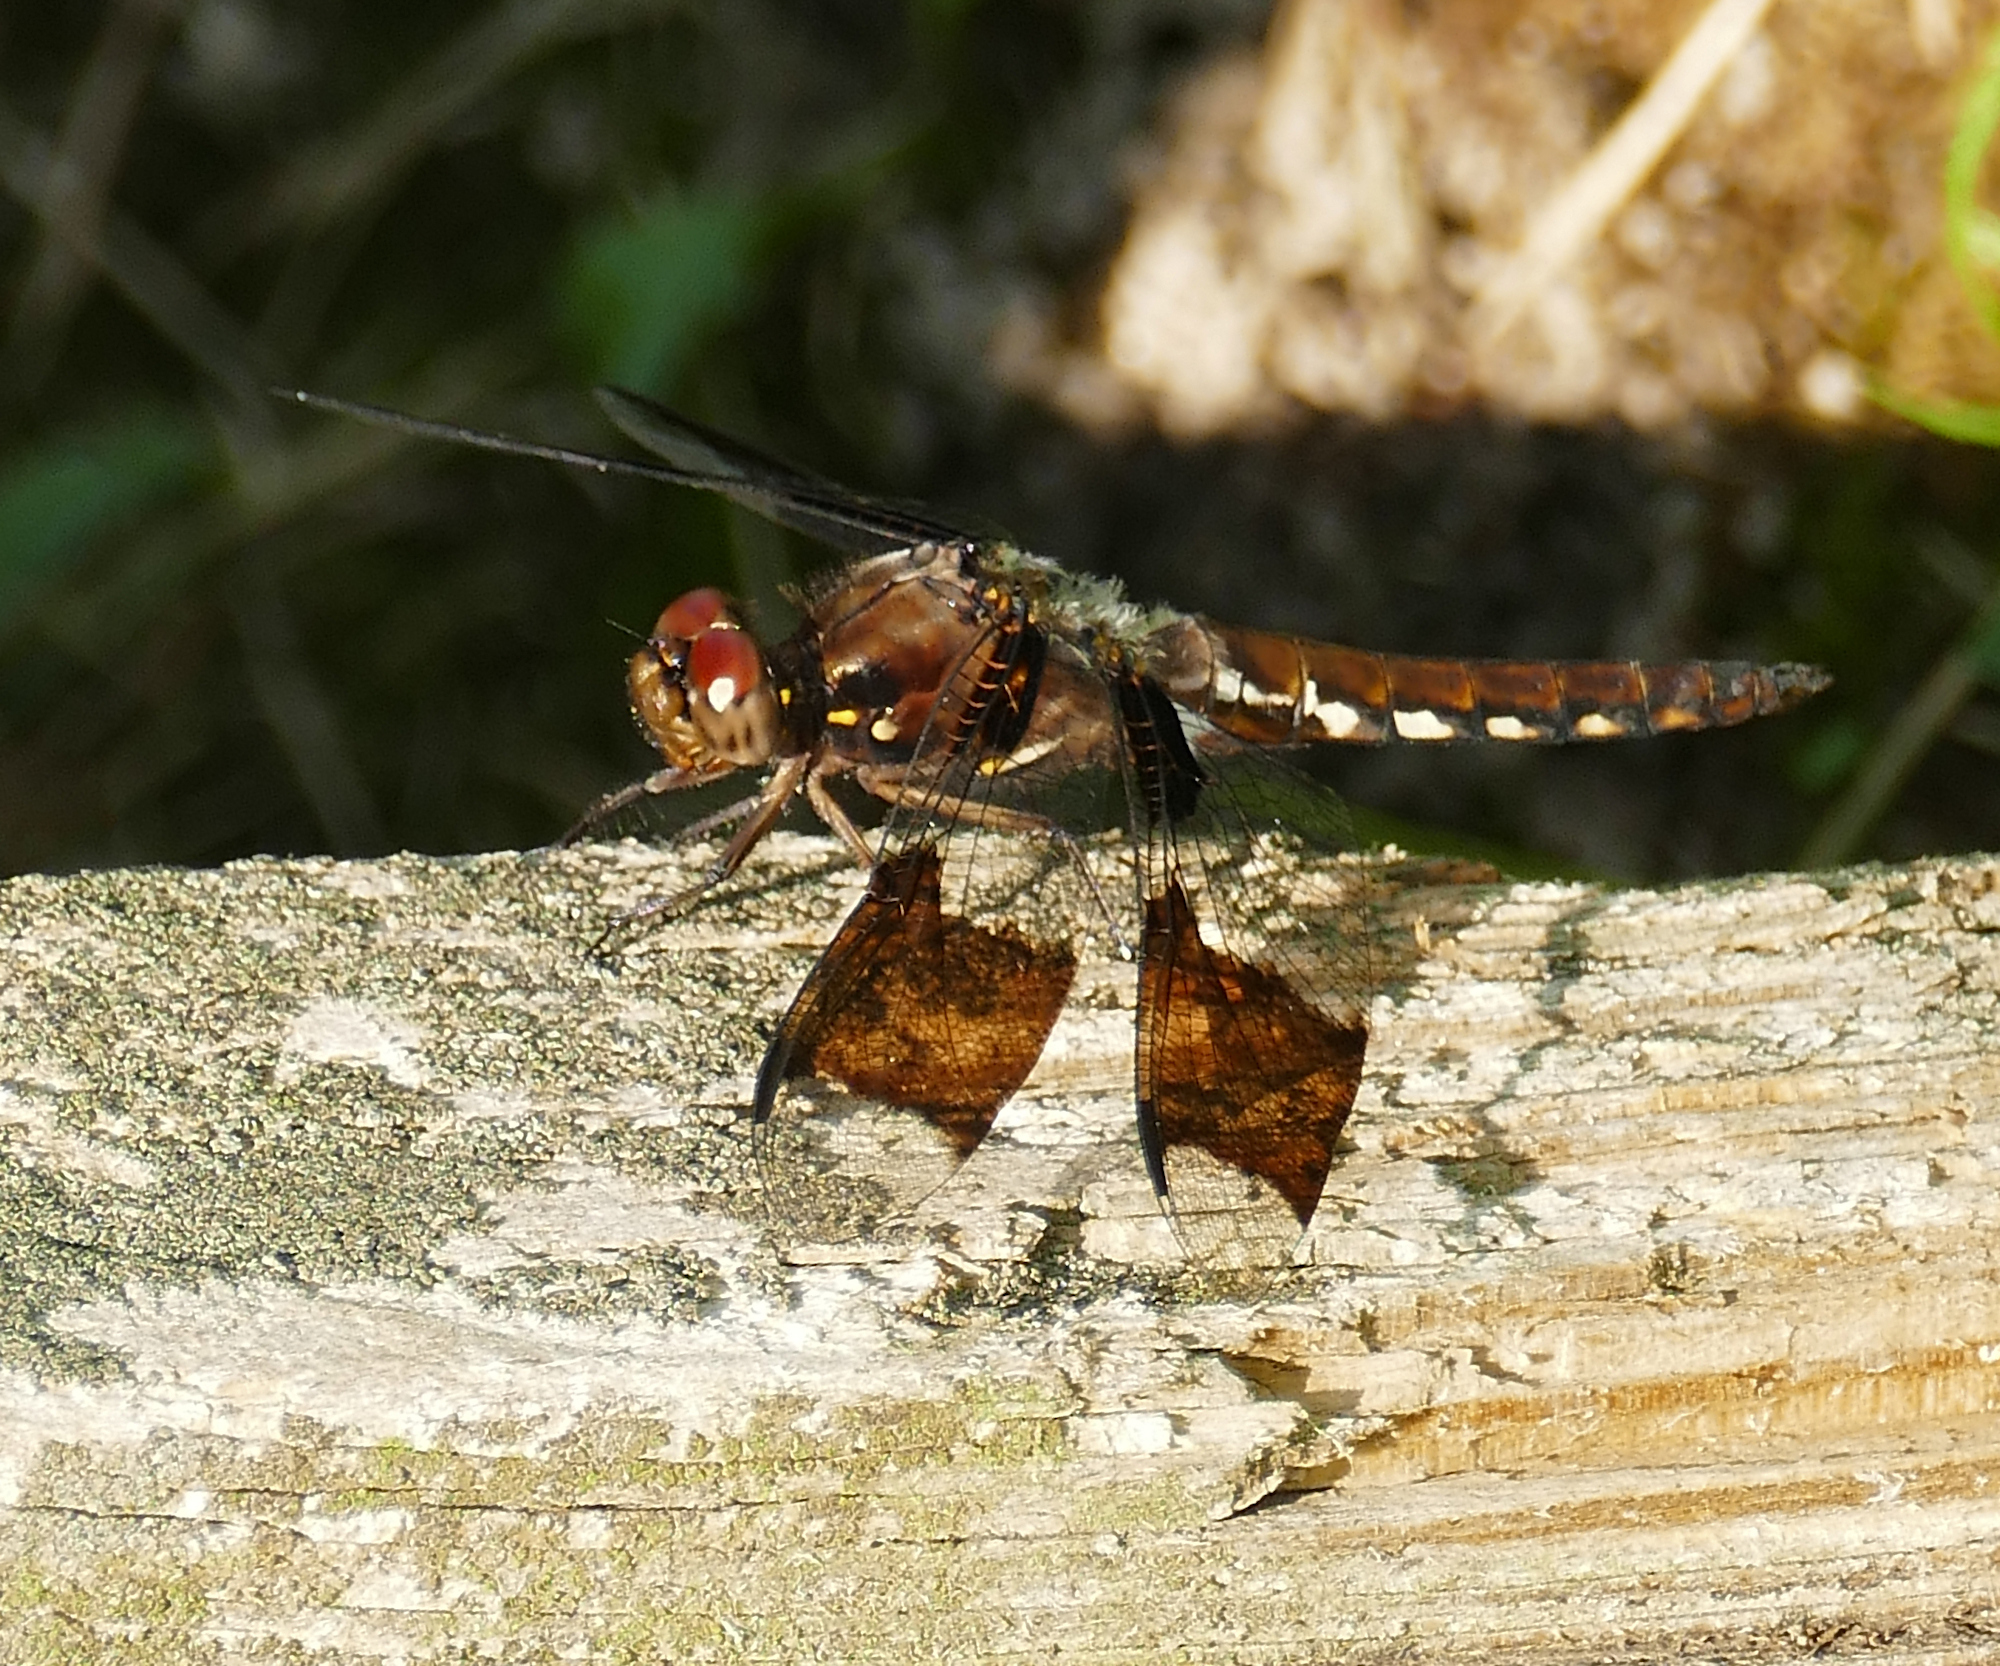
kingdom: Animalia
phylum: Arthropoda
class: Insecta
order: Odonata
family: Libellulidae
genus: Plathemis
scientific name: Plathemis lydia
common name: Common whitetail
